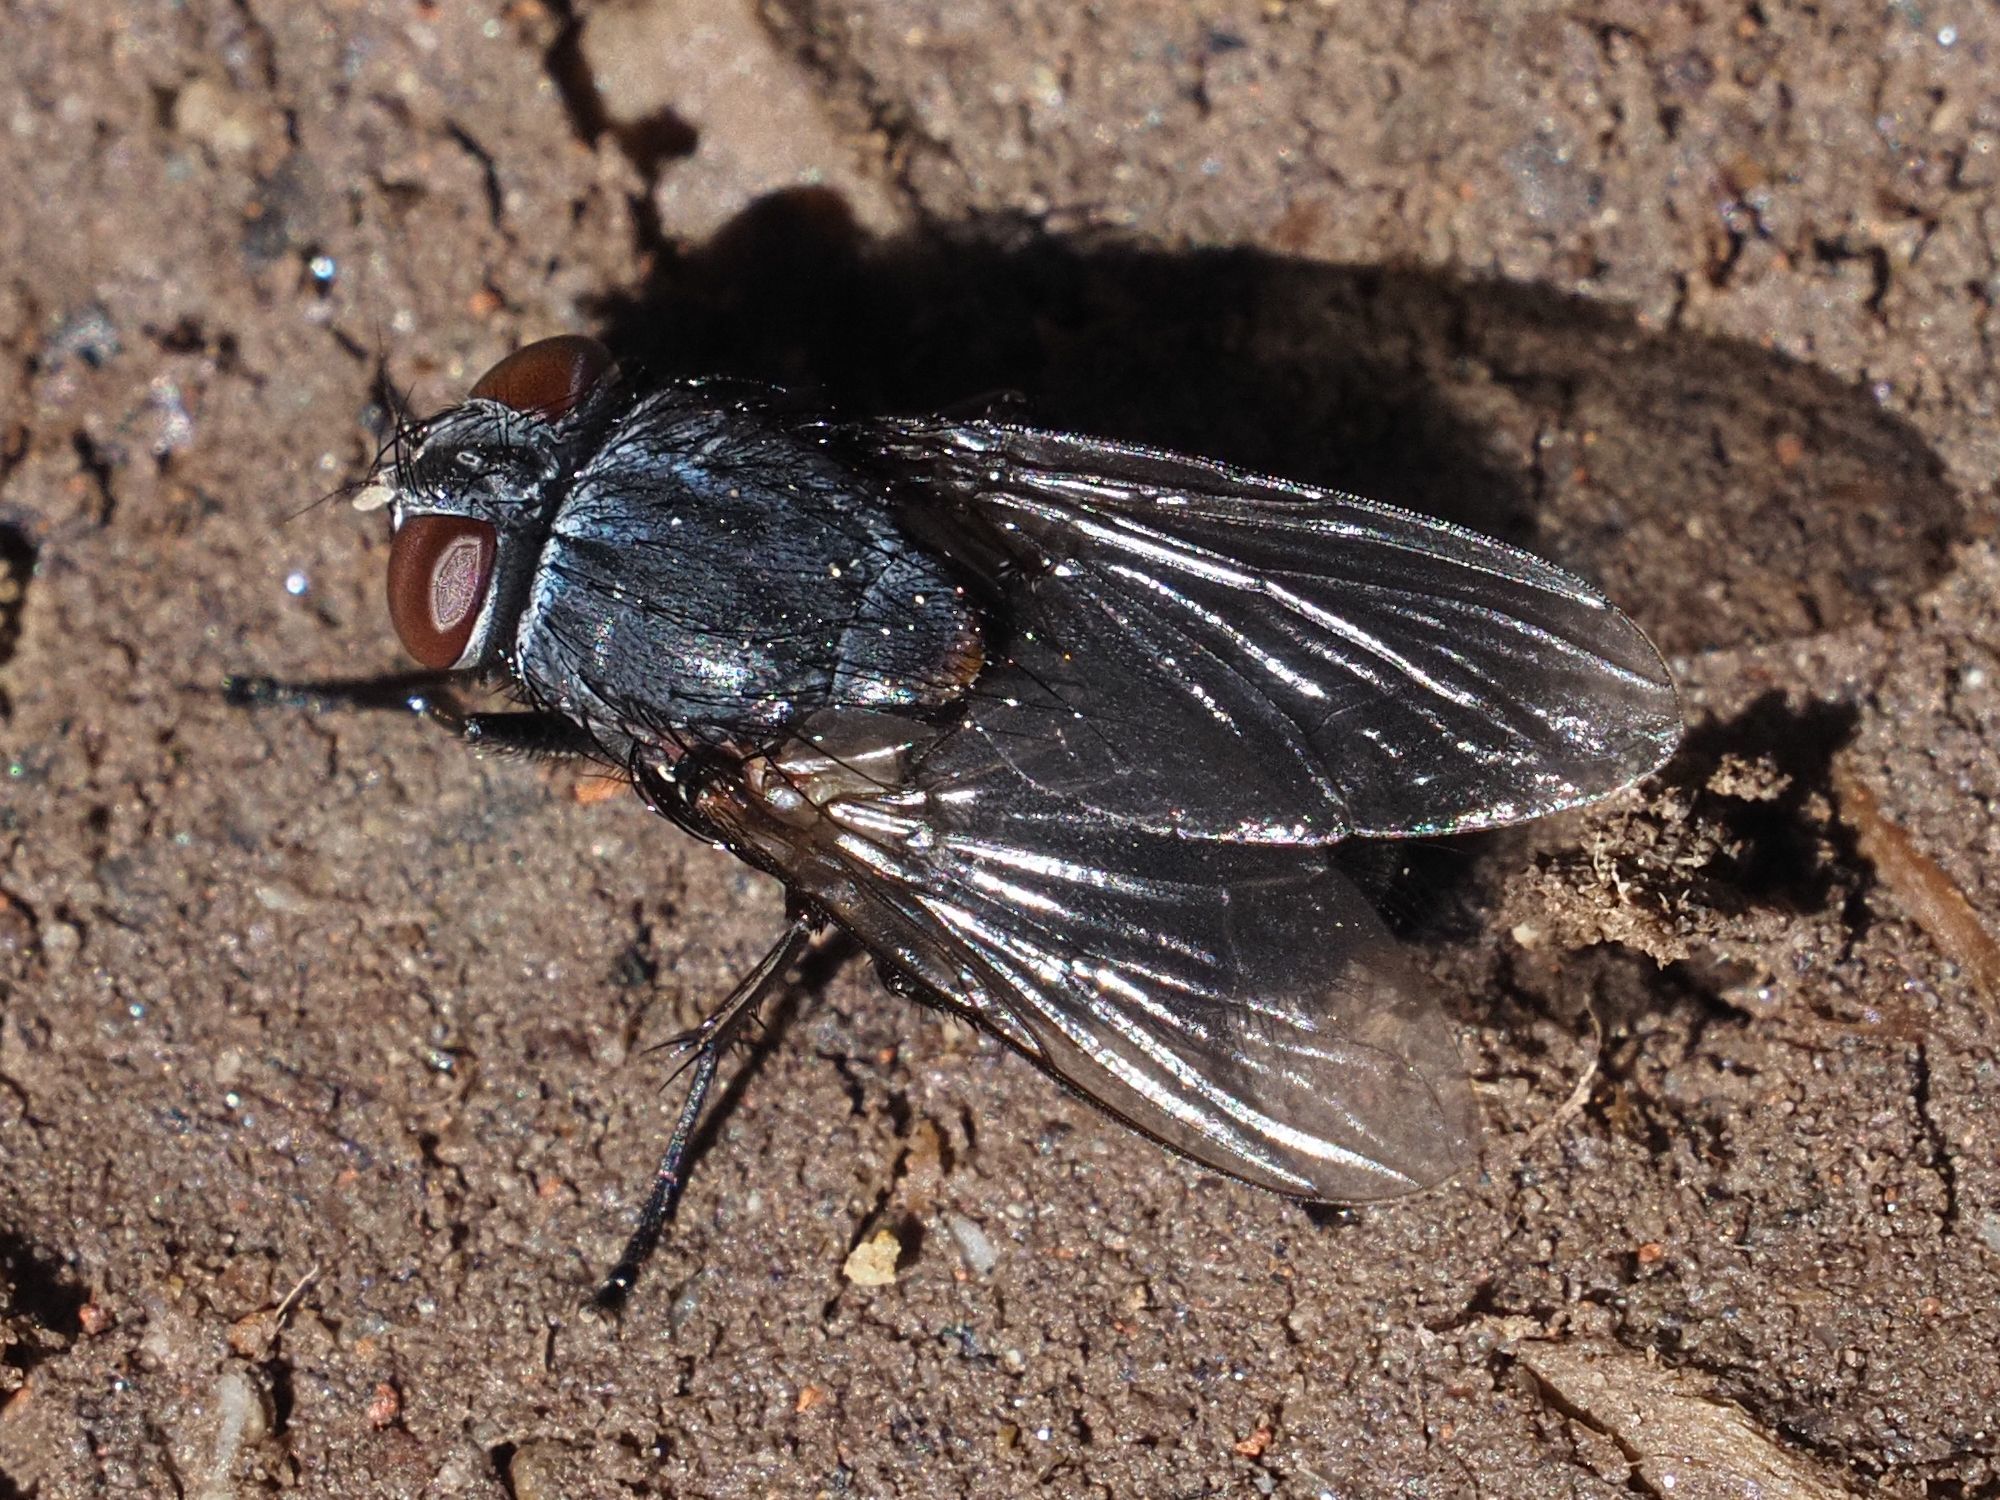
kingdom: Animalia
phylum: Arthropoda
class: Insecta
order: Diptera
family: Muscidae
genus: Muscina
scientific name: Muscina pascuorum
